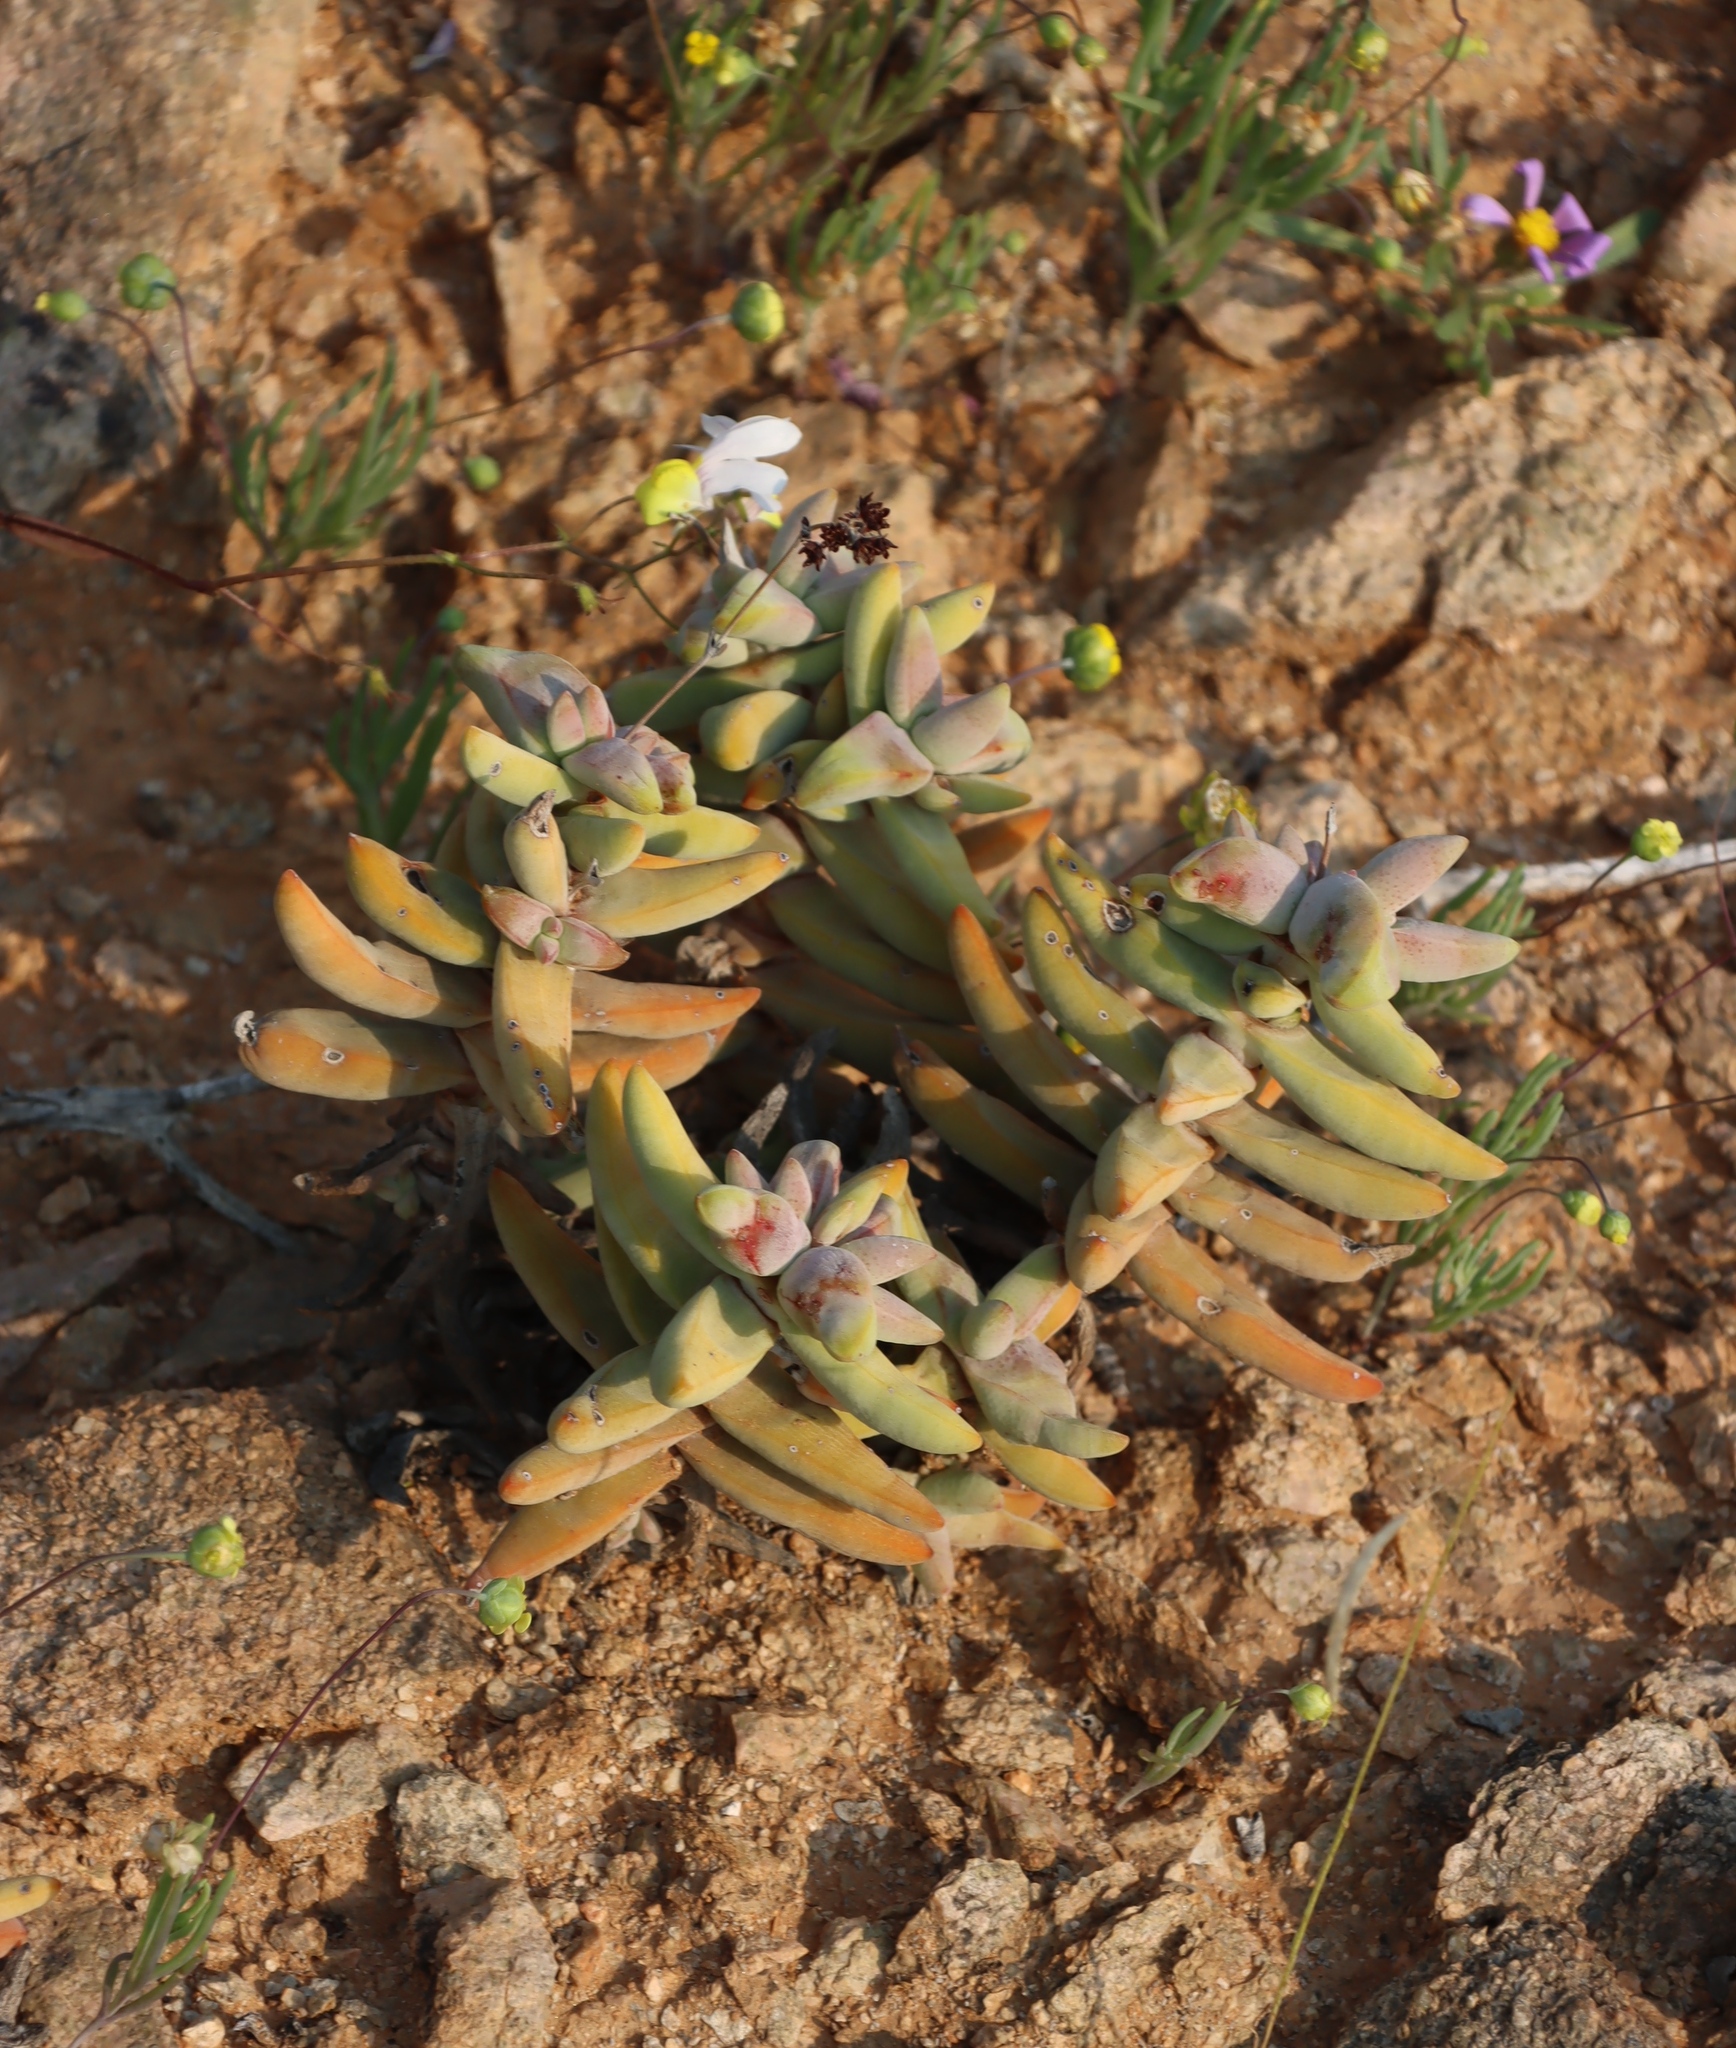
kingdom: Plantae
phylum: Tracheophyta
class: Magnoliopsida
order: Saxifragales
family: Crassulaceae
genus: Crassula
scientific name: Crassula grisea
